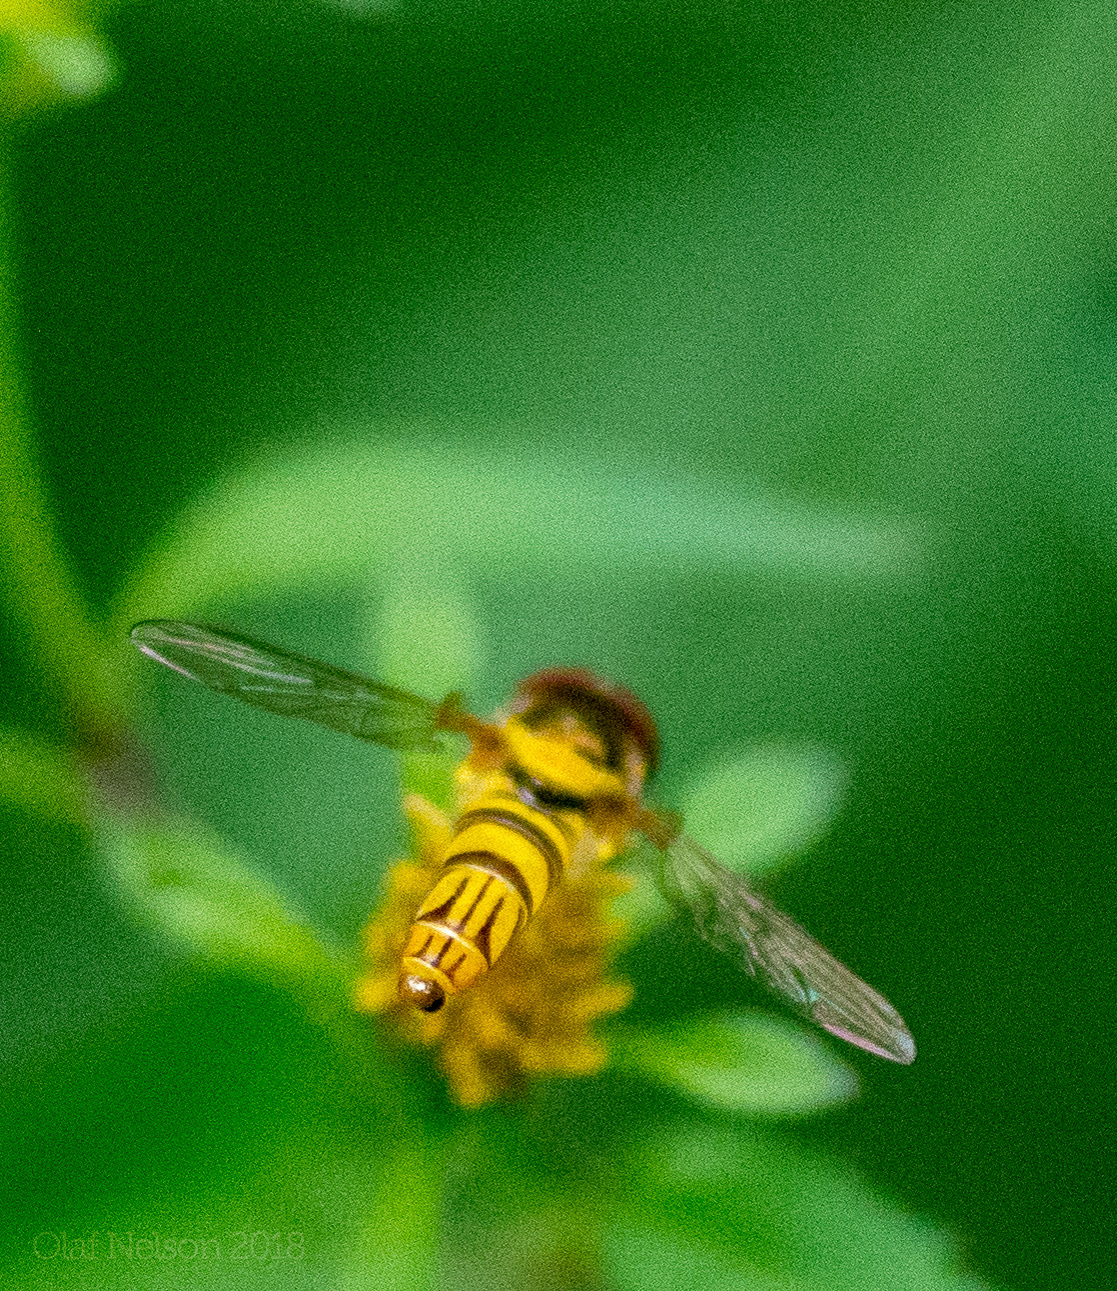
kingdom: Animalia
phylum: Arthropoda
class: Insecta
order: Diptera
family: Syrphidae
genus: Allograpta
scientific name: Allograpta obliqua
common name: Common oblique syrphid
